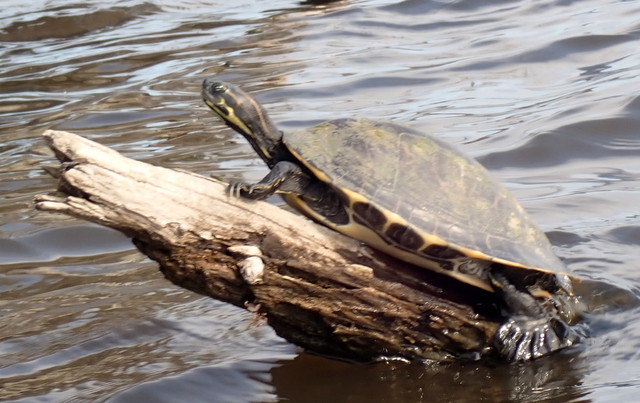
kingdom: Animalia
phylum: Chordata
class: Testudines
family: Emydidae
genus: Pseudemys
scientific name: Pseudemys concinna
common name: Eastern river cooter
